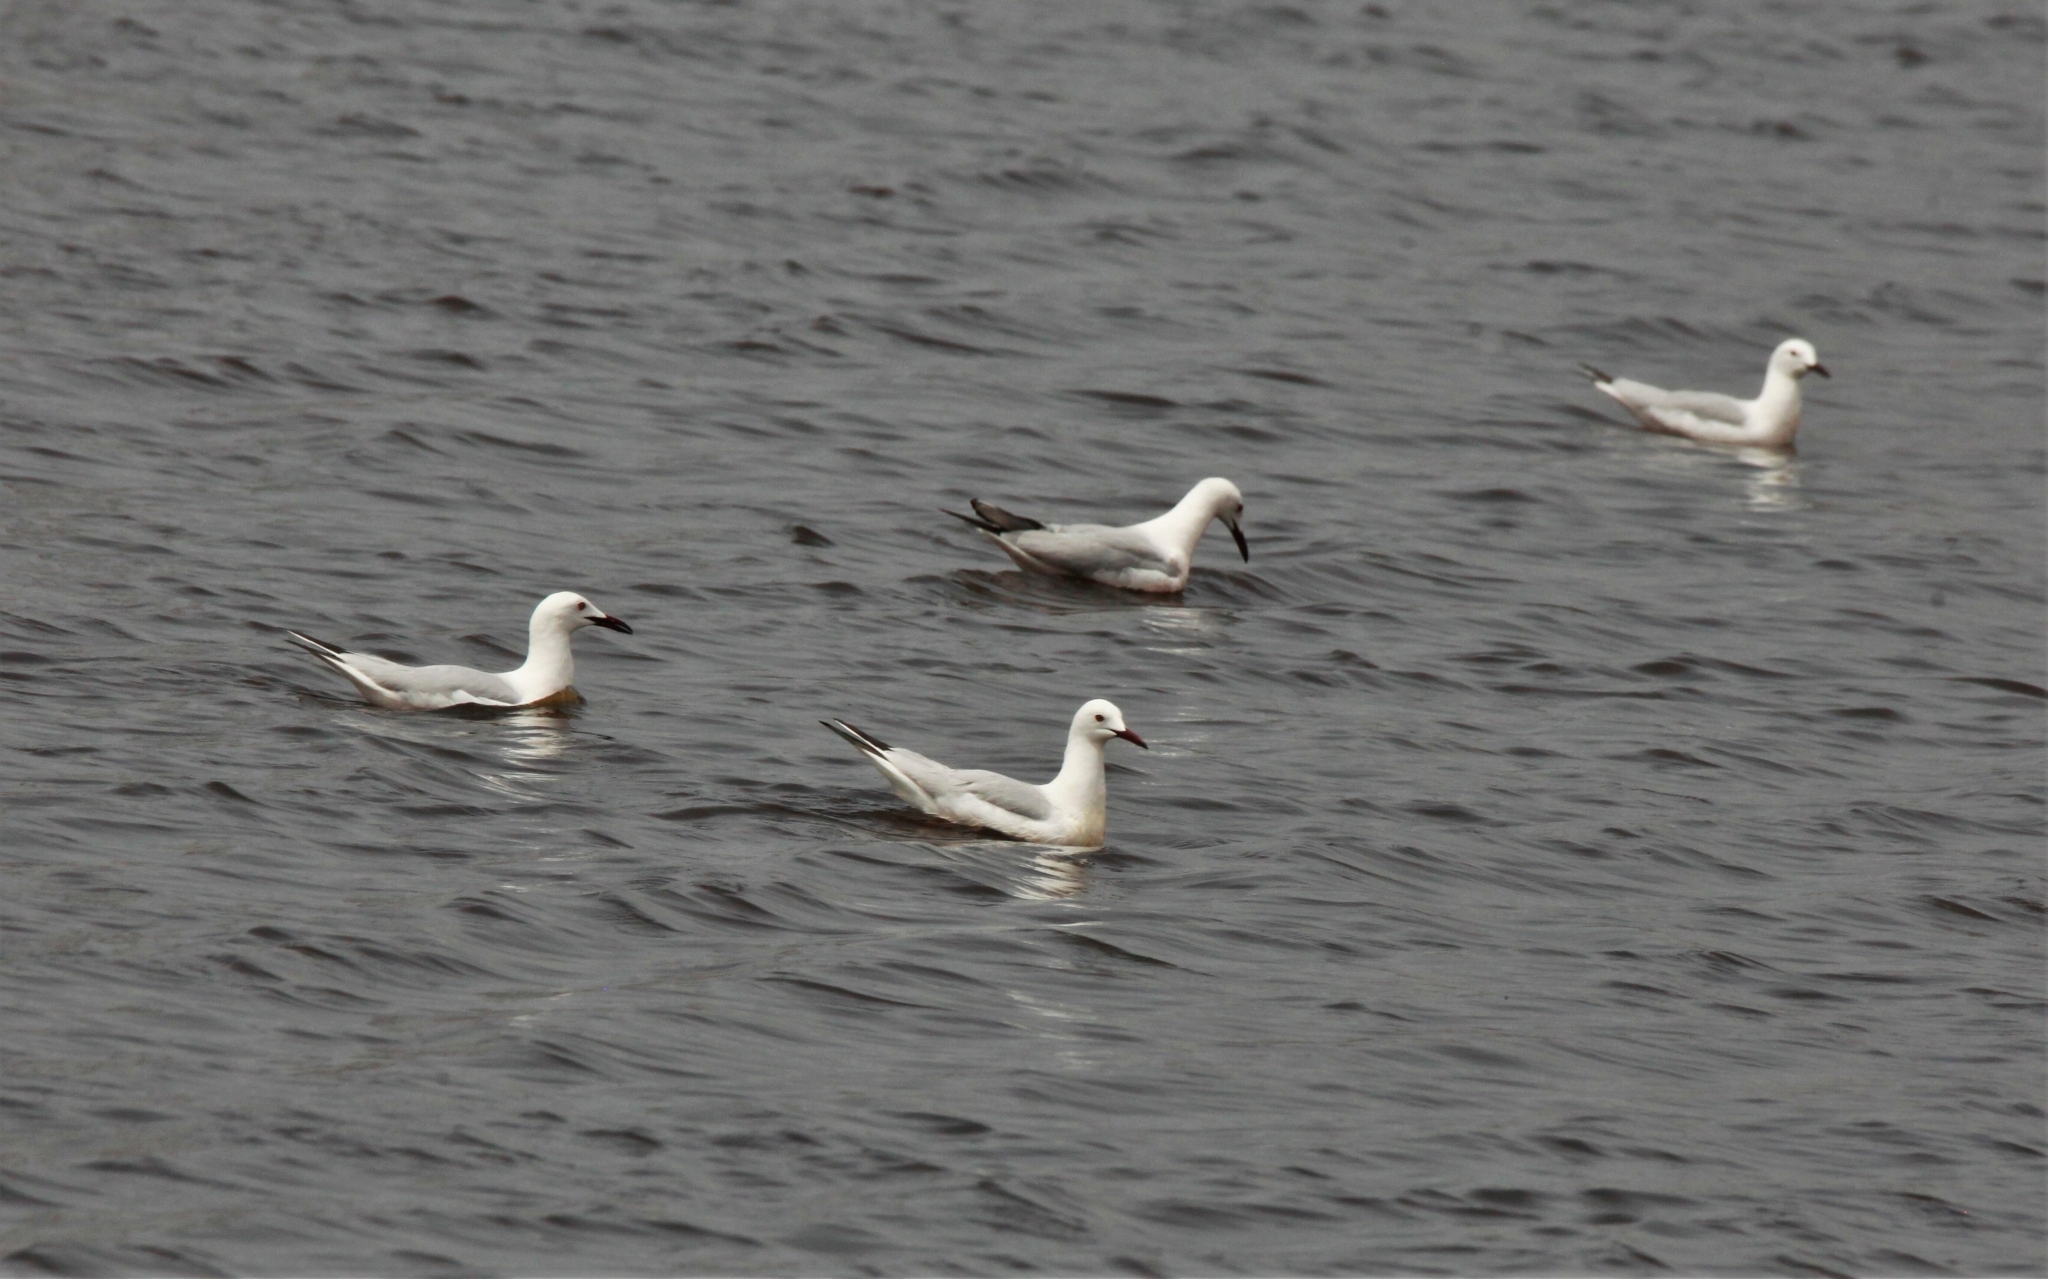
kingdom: Animalia
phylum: Chordata
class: Aves
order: Charadriiformes
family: Laridae
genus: Chroicocephalus
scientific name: Chroicocephalus genei
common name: Slender-billed gull
